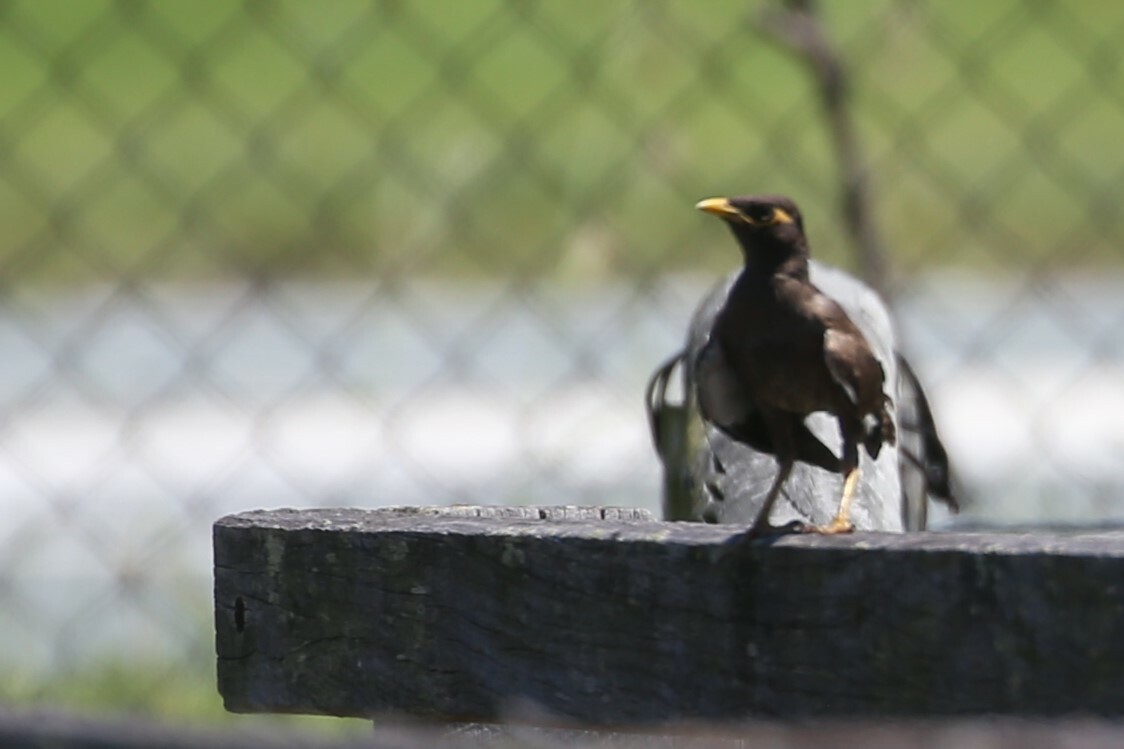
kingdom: Animalia
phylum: Chordata
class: Aves
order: Passeriformes
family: Sturnidae
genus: Acridotheres
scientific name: Acridotheres tristis
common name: Common myna
